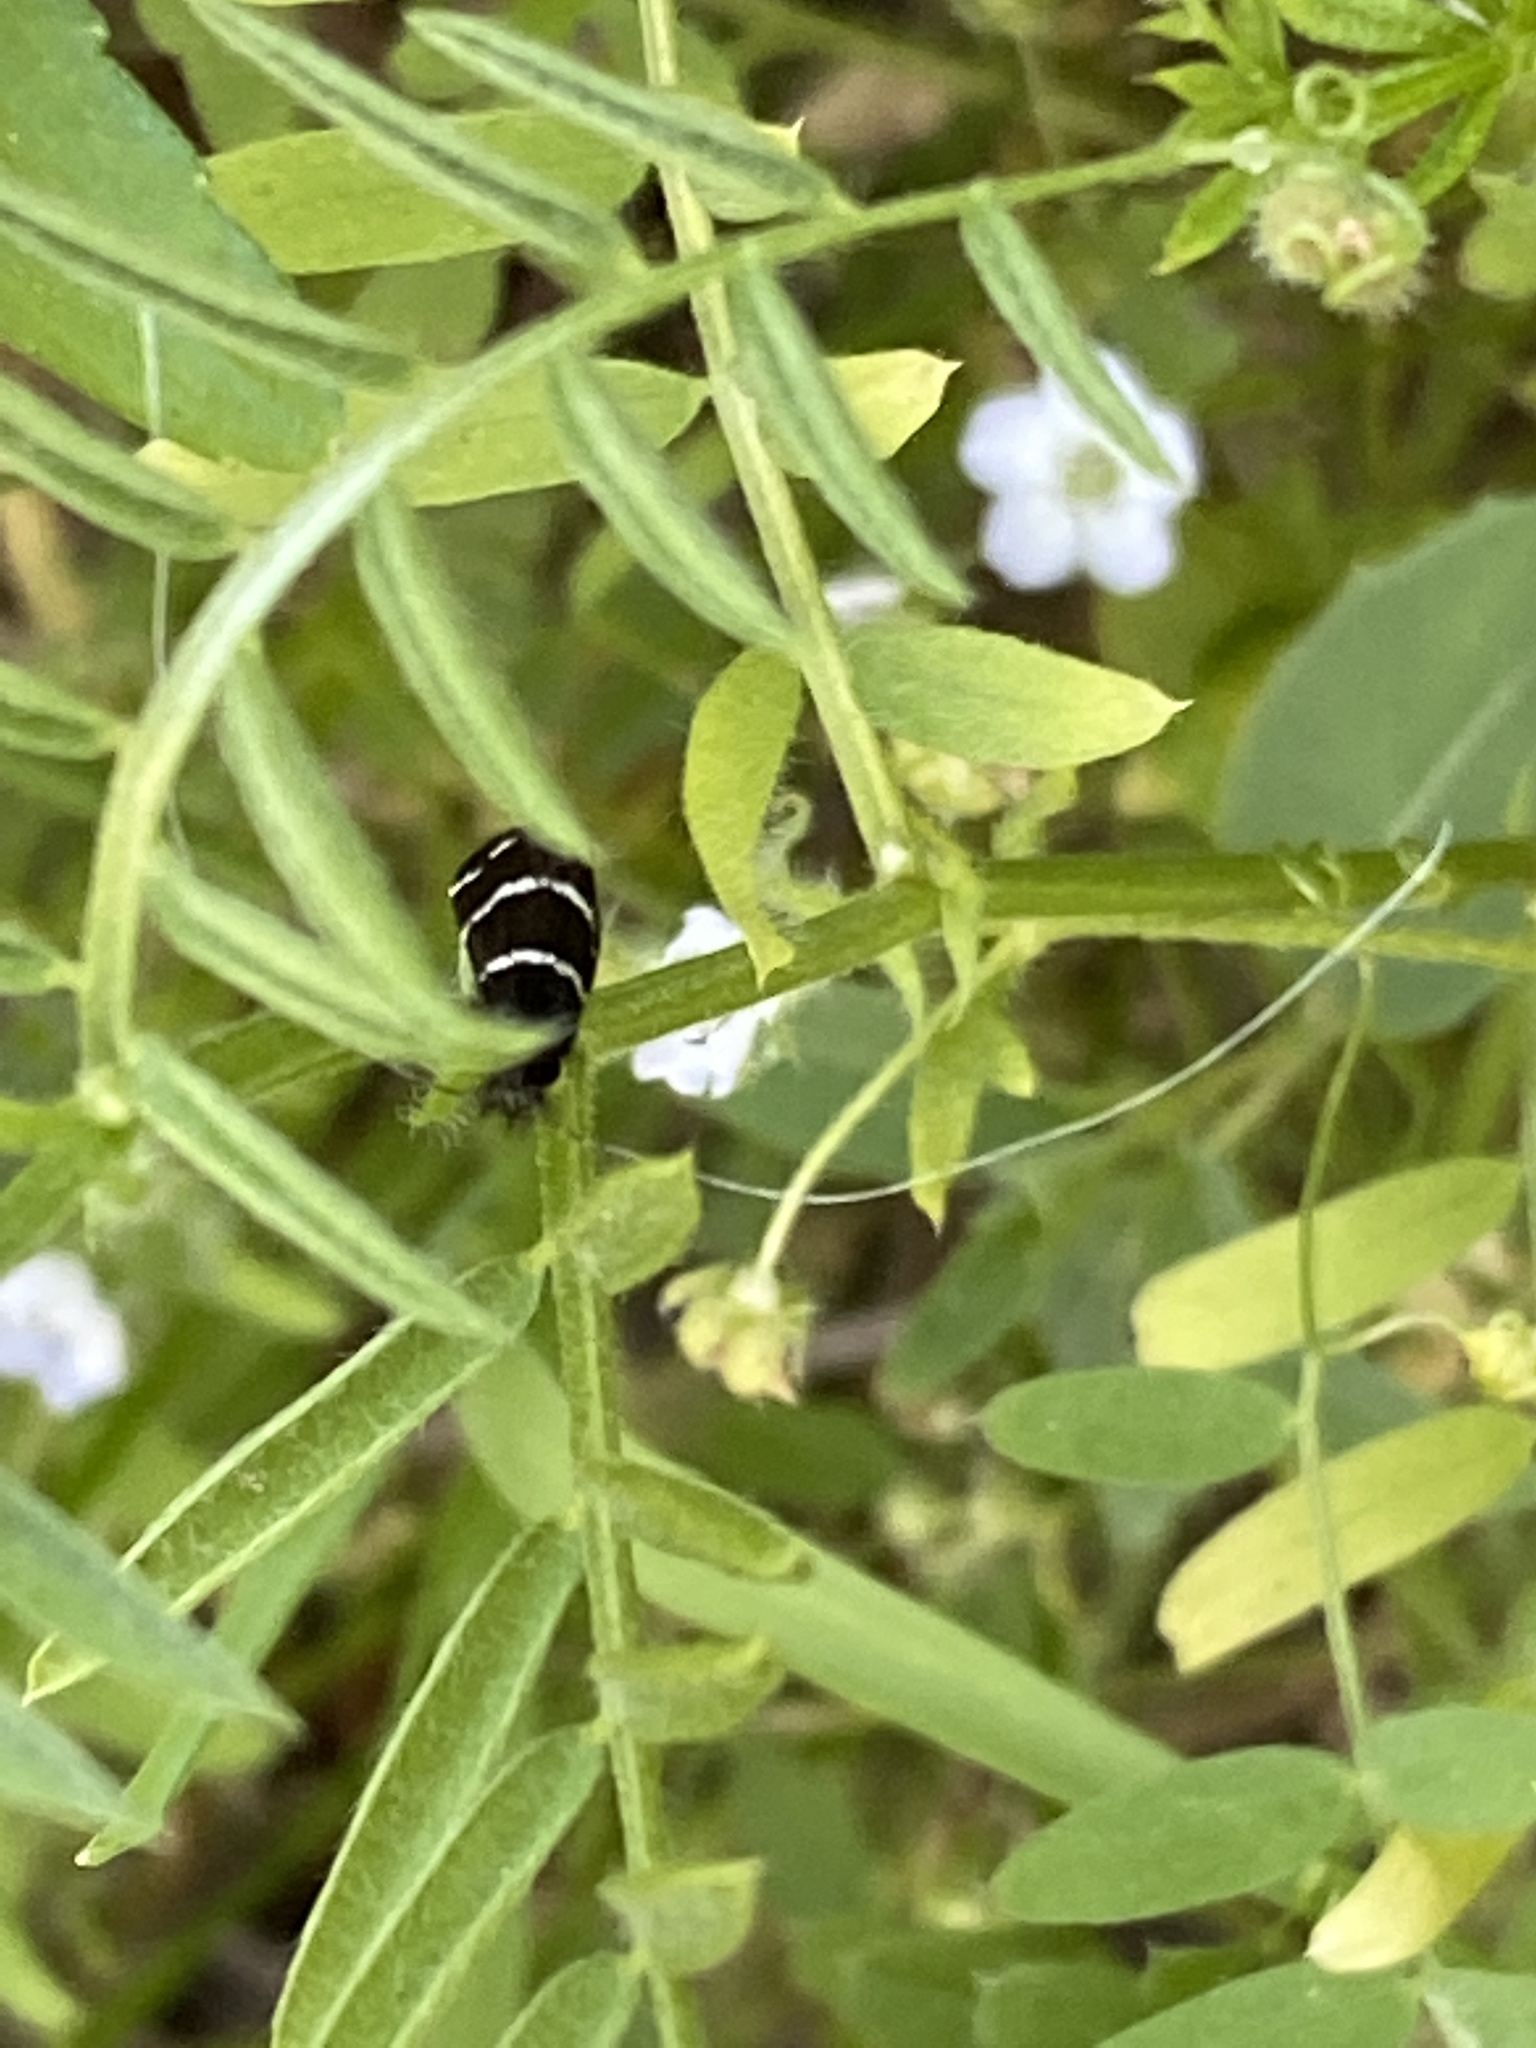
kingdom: Animalia
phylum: Arthropoda
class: Insecta
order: Lepidoptera
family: Adelidae
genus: Adela
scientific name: Adela trigrapha
